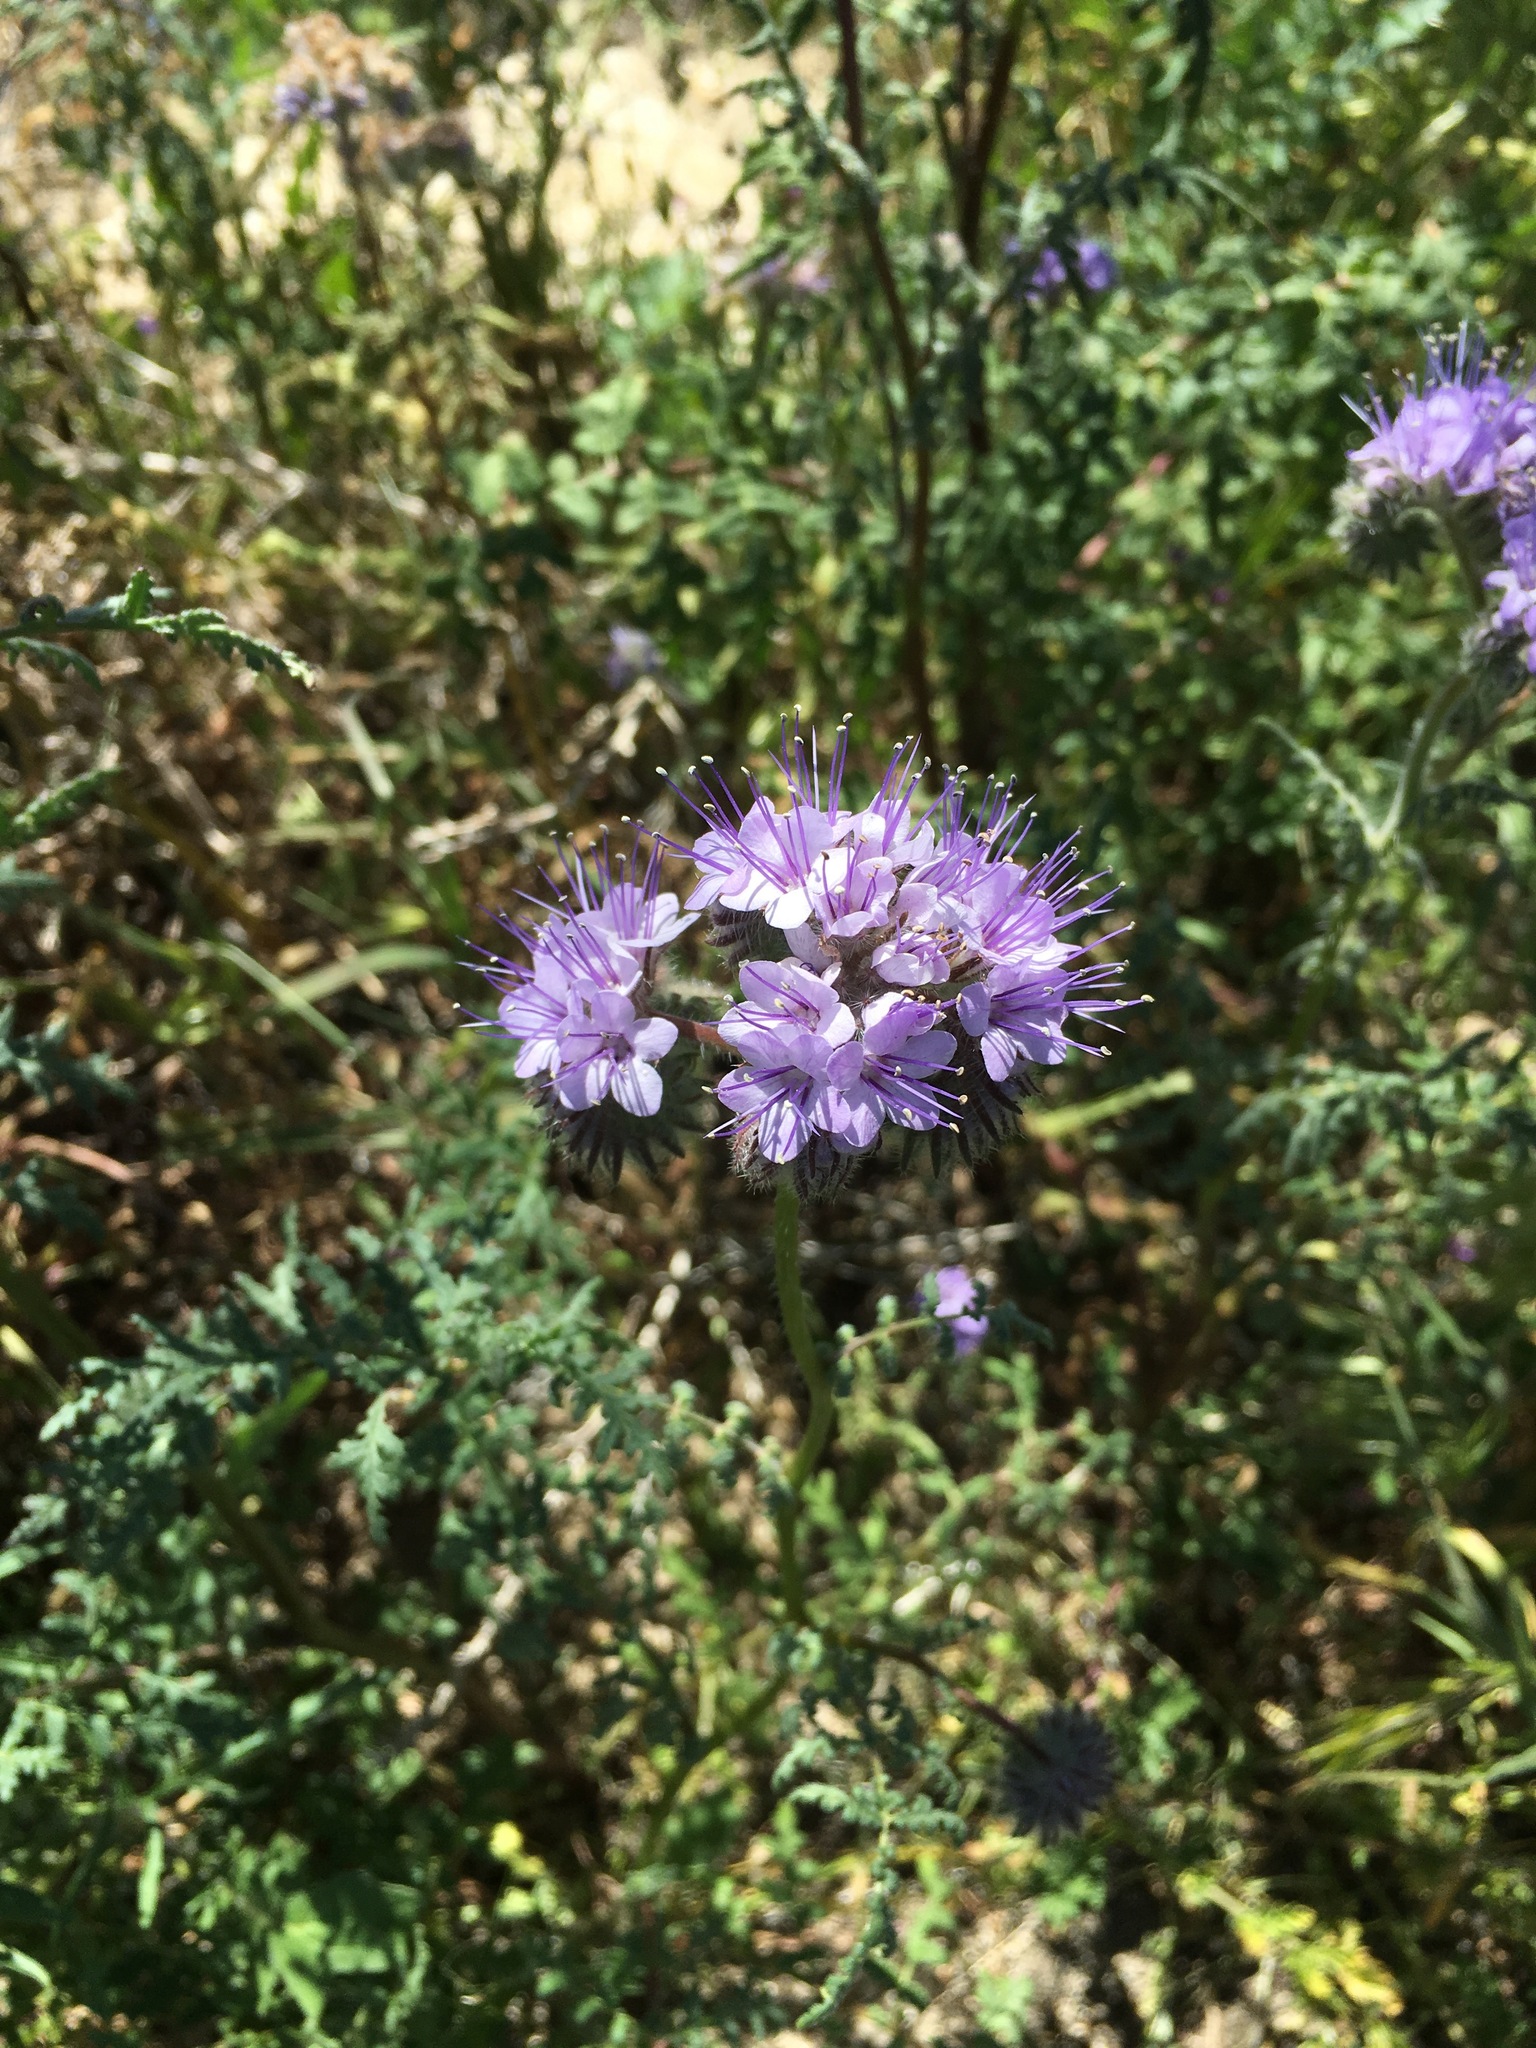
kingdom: Plantae
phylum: Tracheophyta
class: Magnoliopsida
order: Boraginales
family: Hydrophyllaceae
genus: Phacelia
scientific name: Phacelia tanacetifolia
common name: Phacelia
